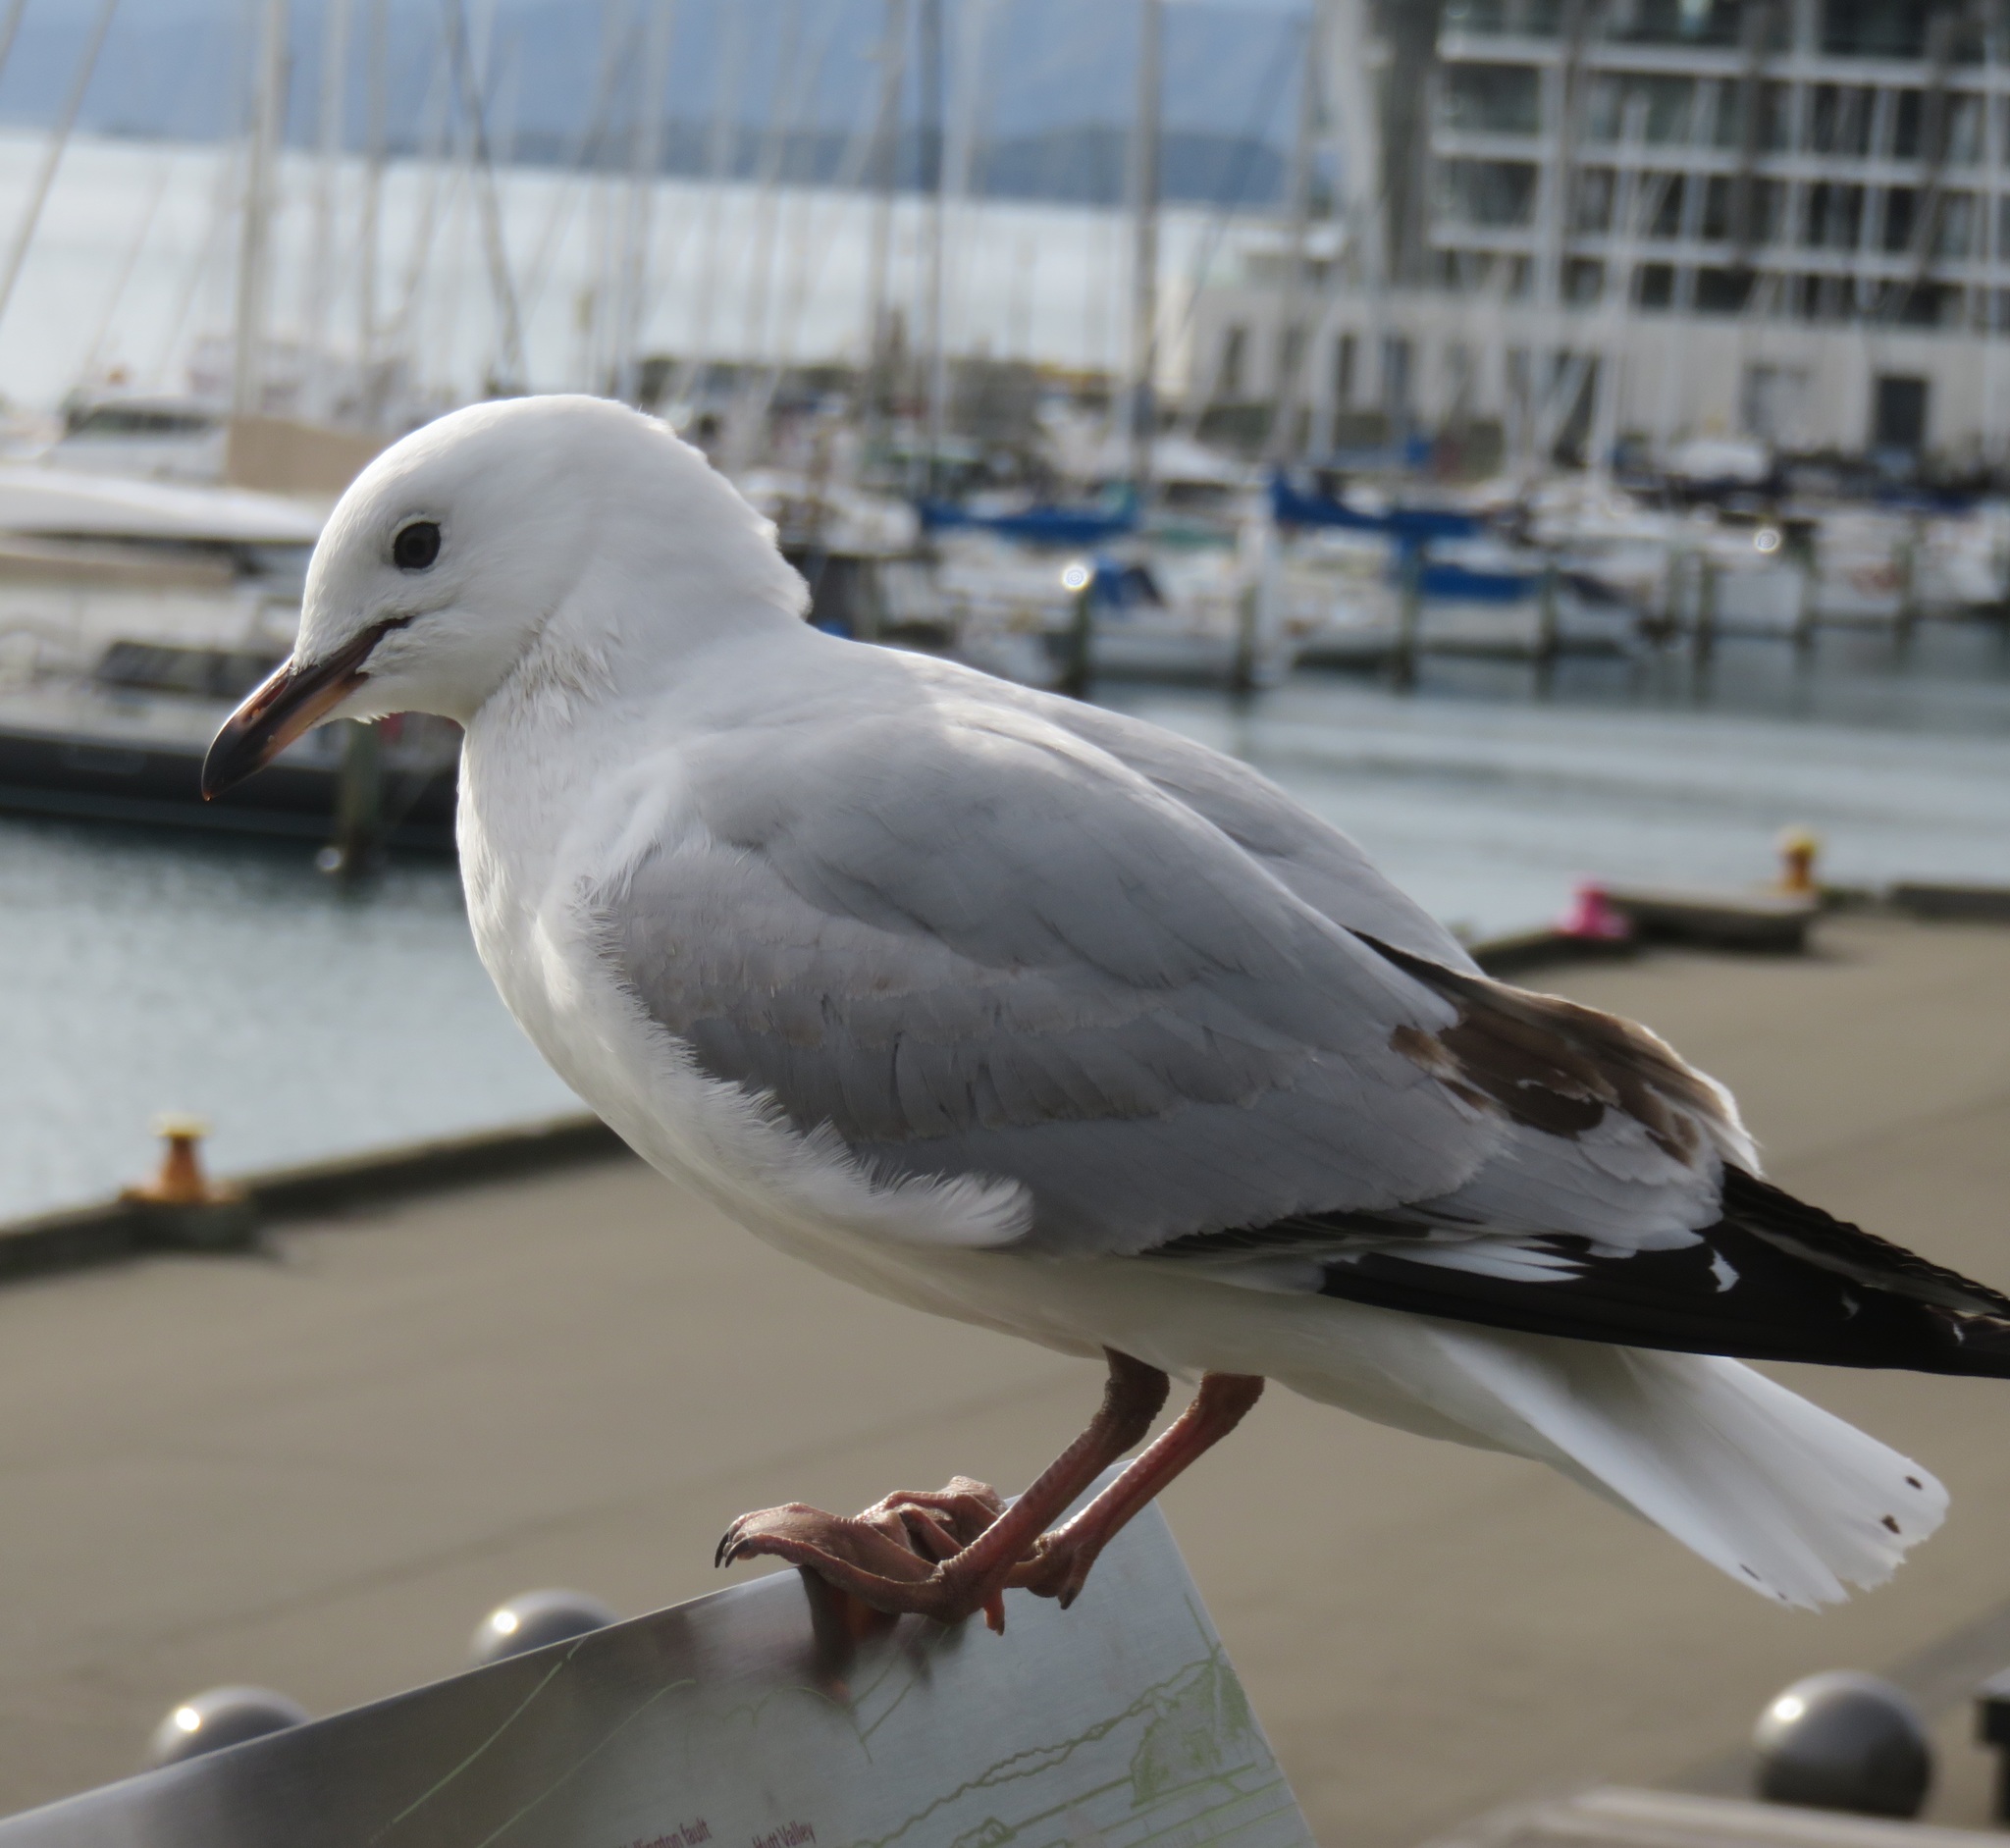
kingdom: Animalia
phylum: Chordata
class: Aves
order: Charadriiformes
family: Laridae
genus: Chroicocephalus
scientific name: Chroicocephalus novaehollandiae
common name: Silver gull
